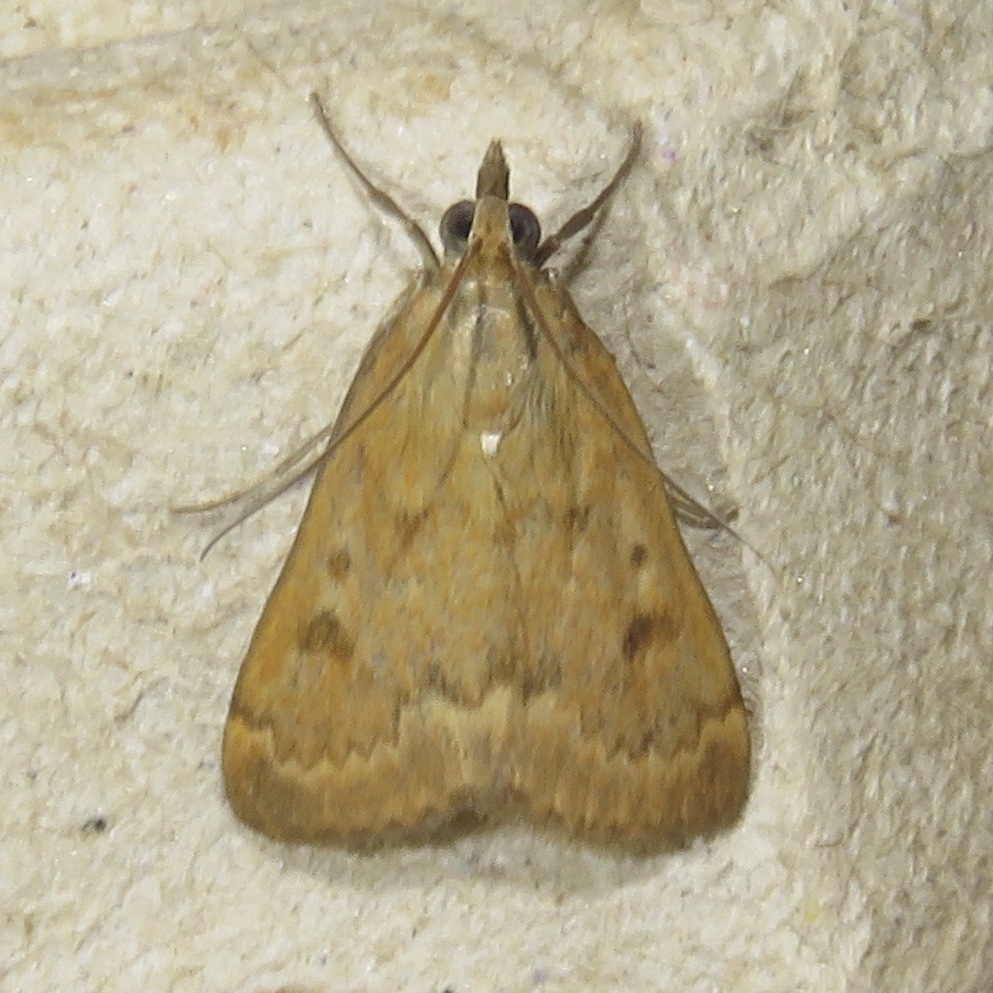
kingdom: Animalia
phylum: Arthropoda
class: Insecta
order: Lepidoptera
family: Crambidae
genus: Achyra
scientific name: Achyra rantalis
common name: Garden webworm
